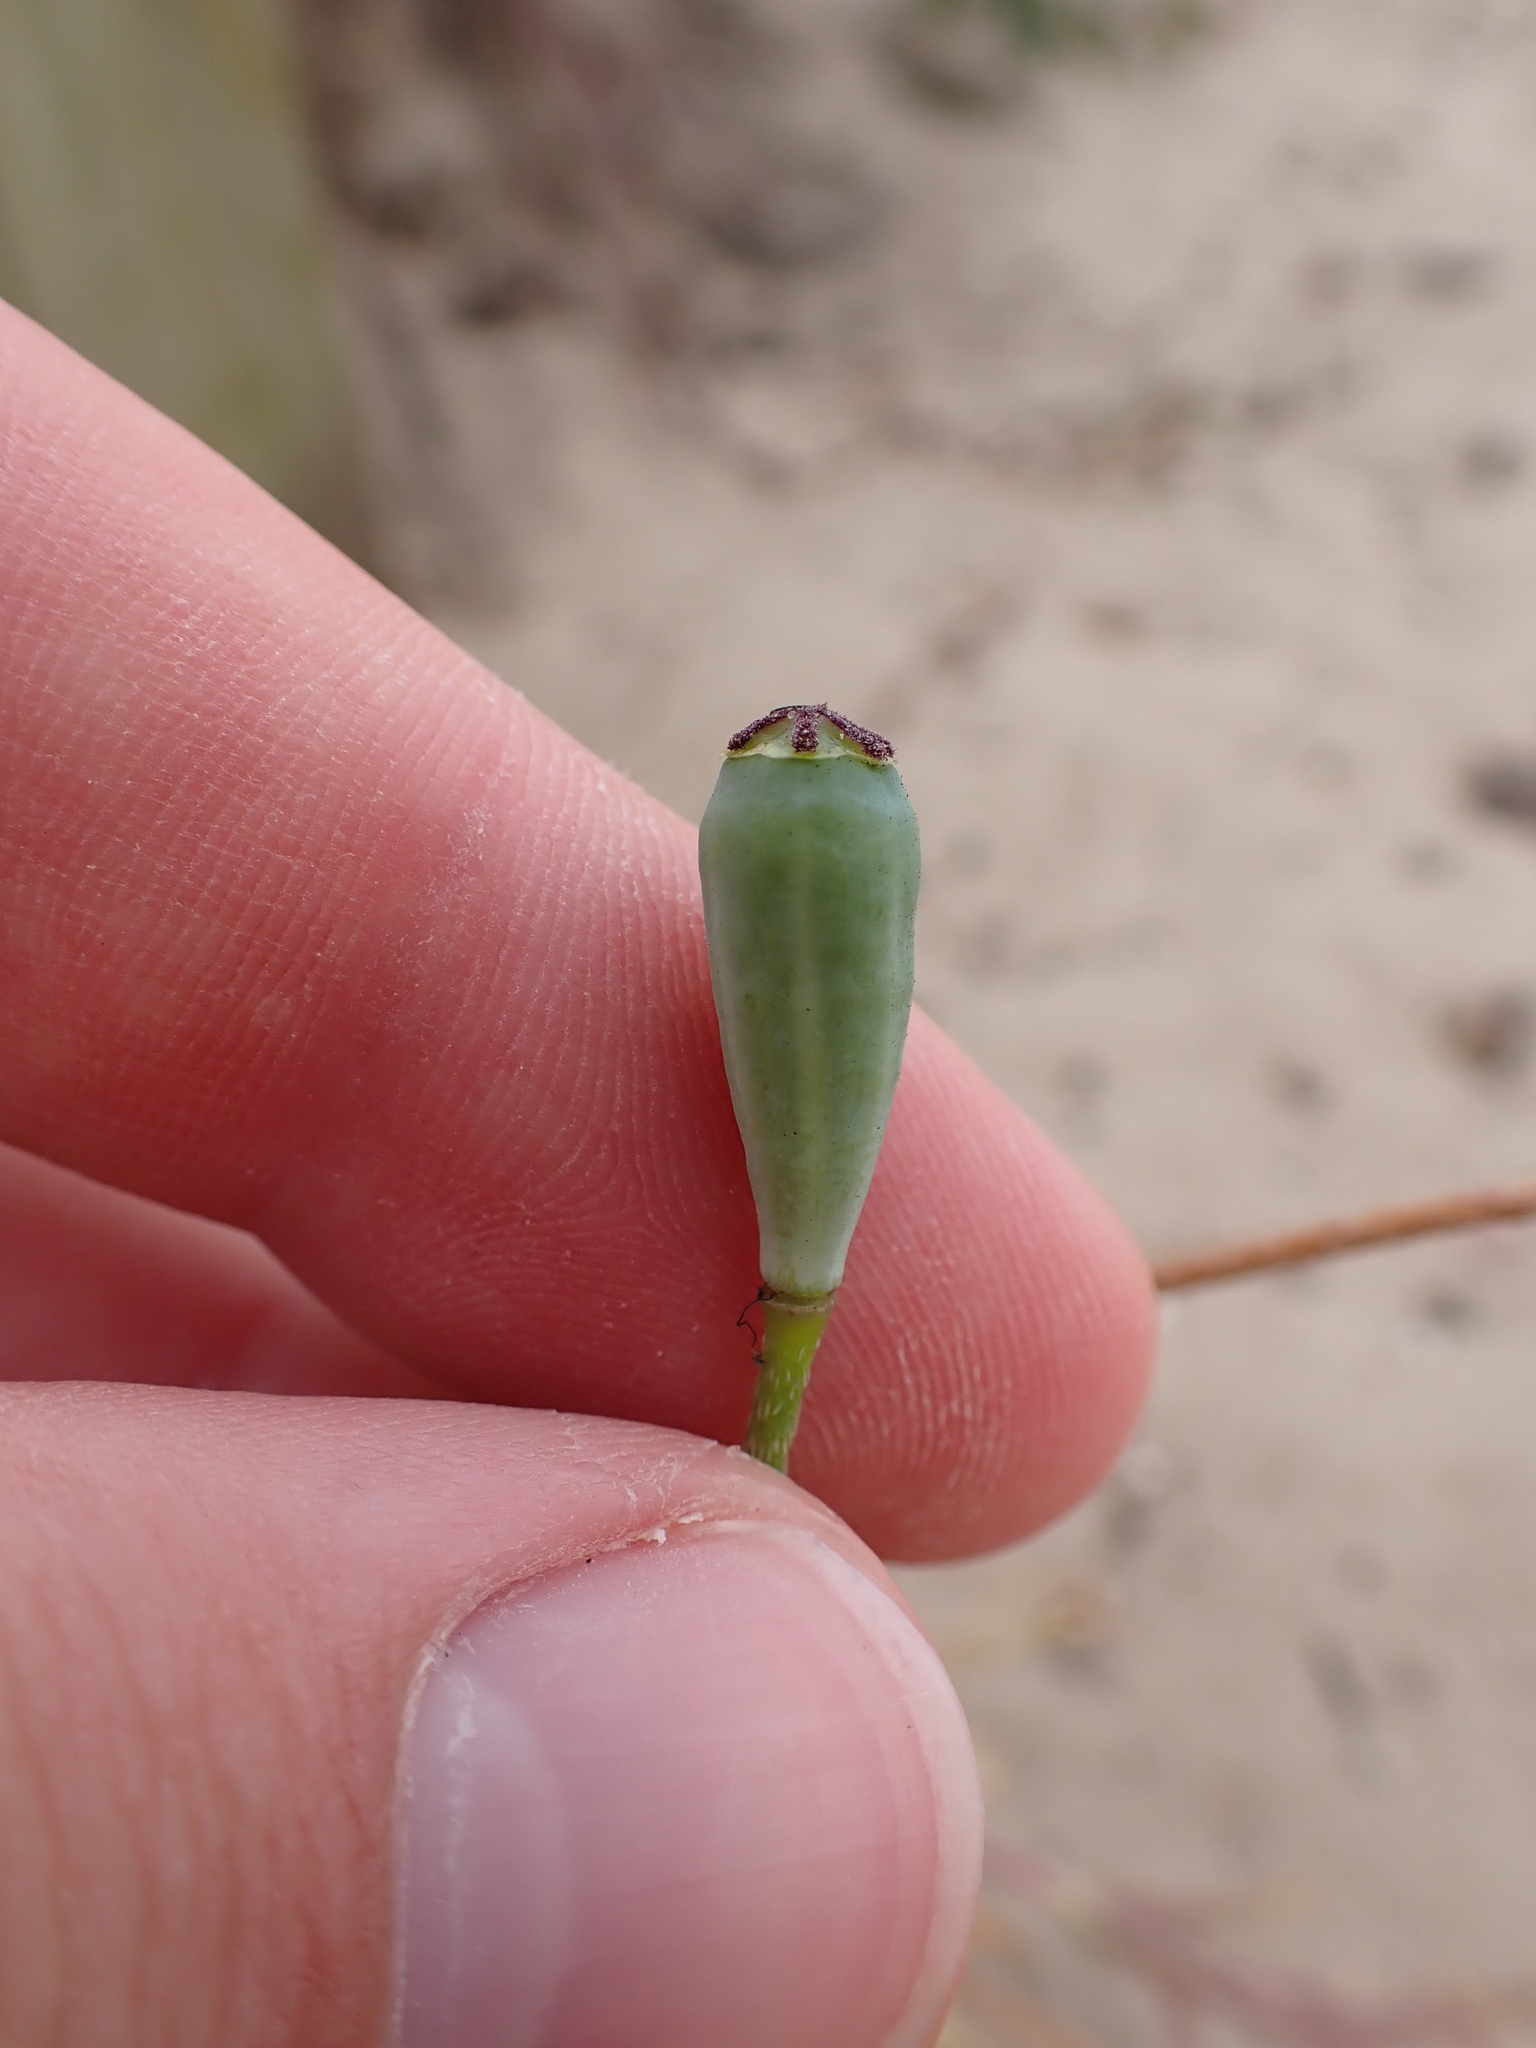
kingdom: Plantae
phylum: Tracheophyta
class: Magnoliopsida
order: Ranunculales
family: Papaveraceae
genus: Papaver
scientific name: Papaver dubium
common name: Long-headed poppy
